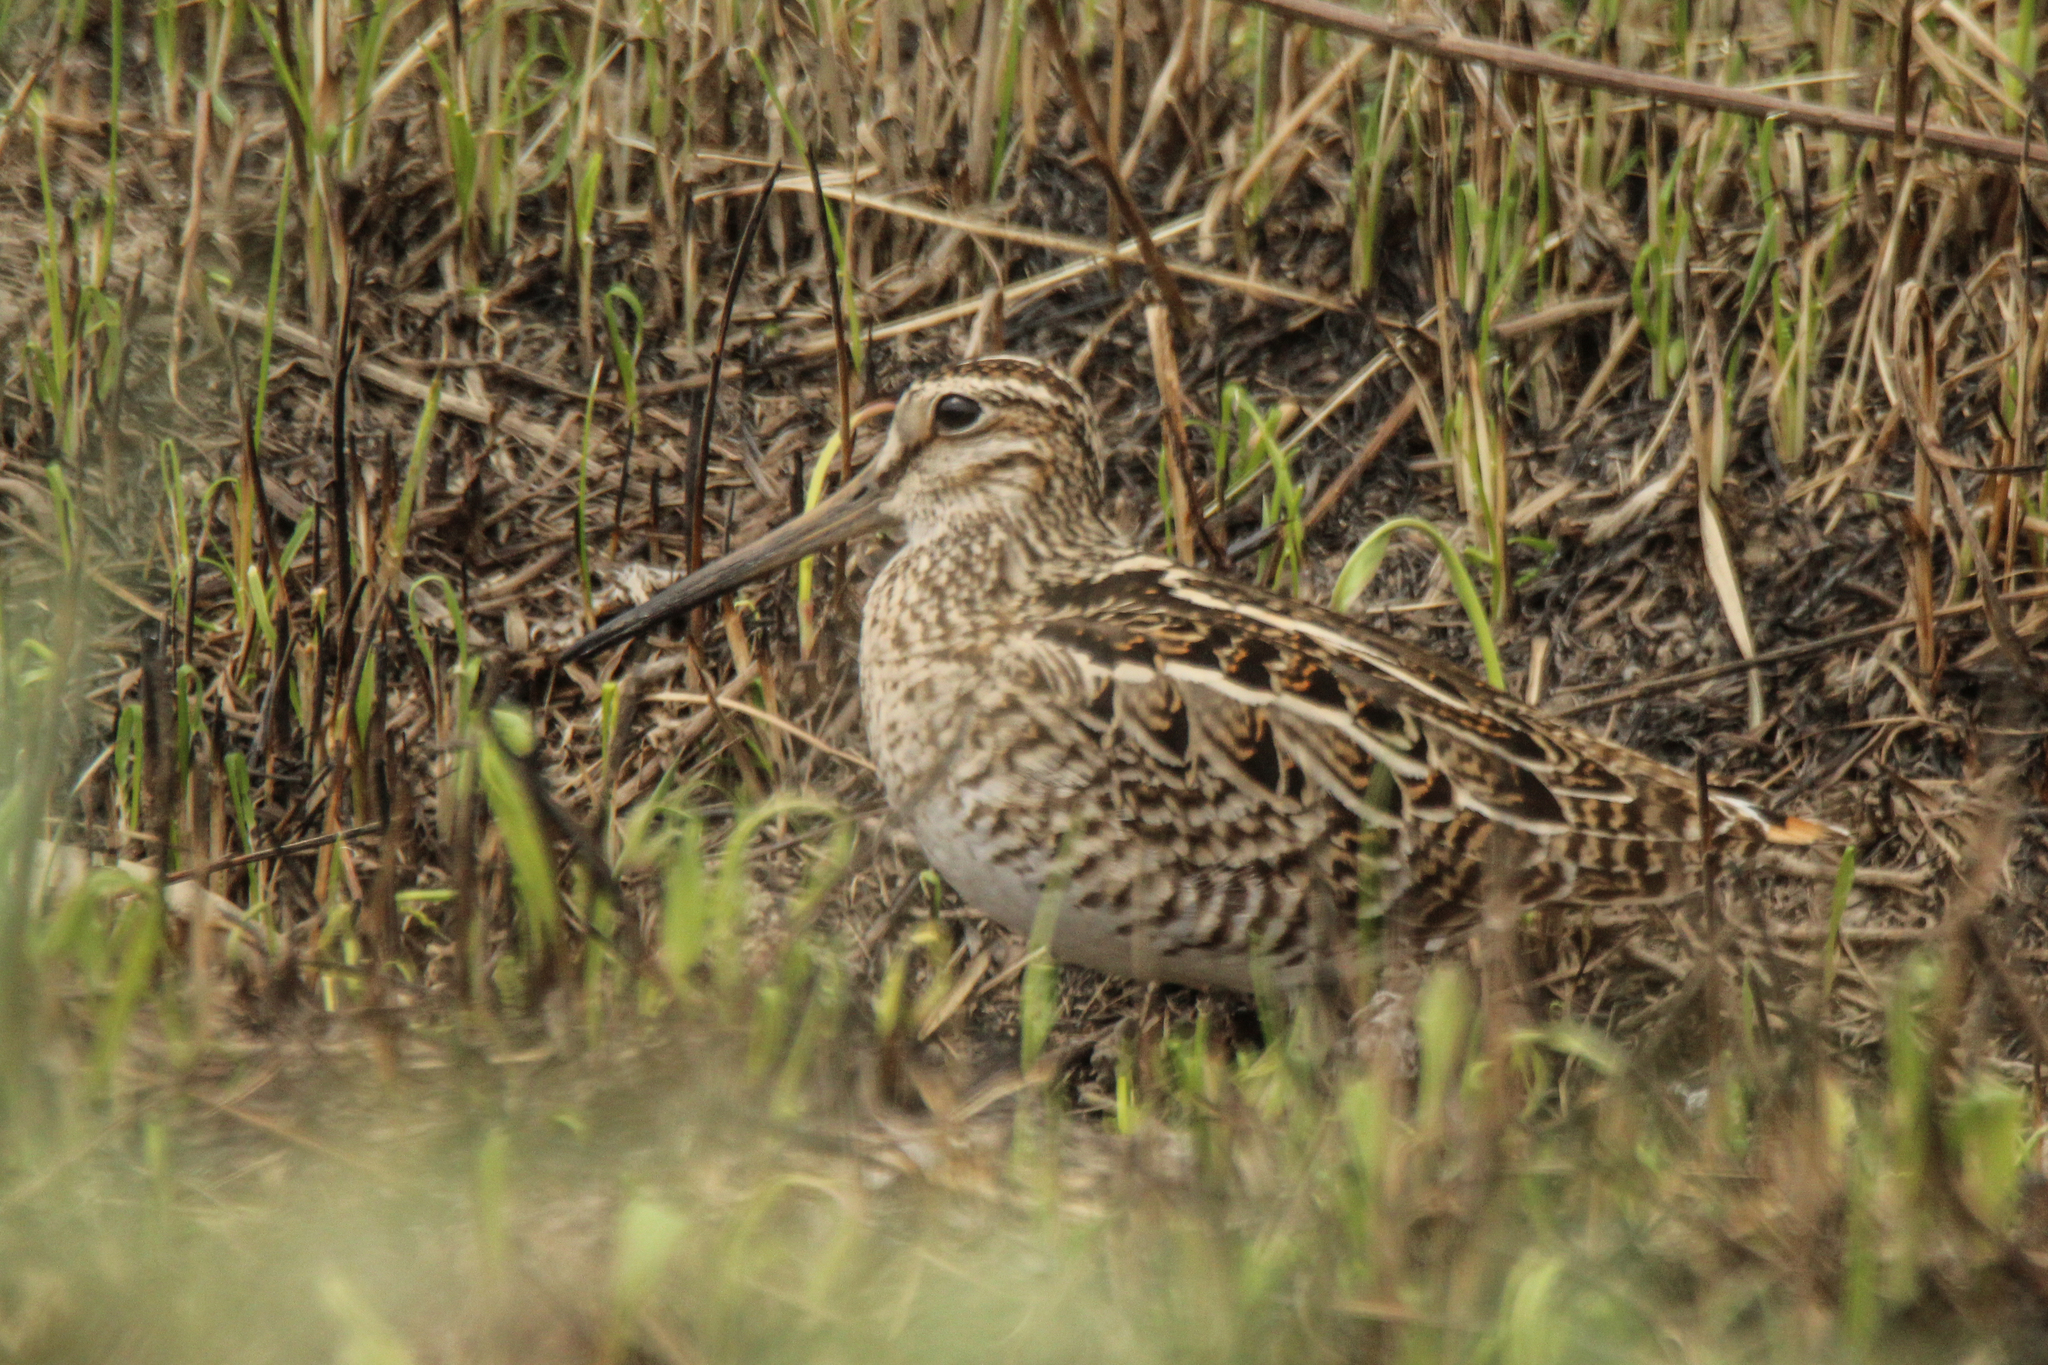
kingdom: Animalia
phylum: Chordata
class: Aves
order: Charadriiformes
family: Scolopacidae
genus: Gallinago
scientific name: Gallinago stenura
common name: Pin-tailed snipe
